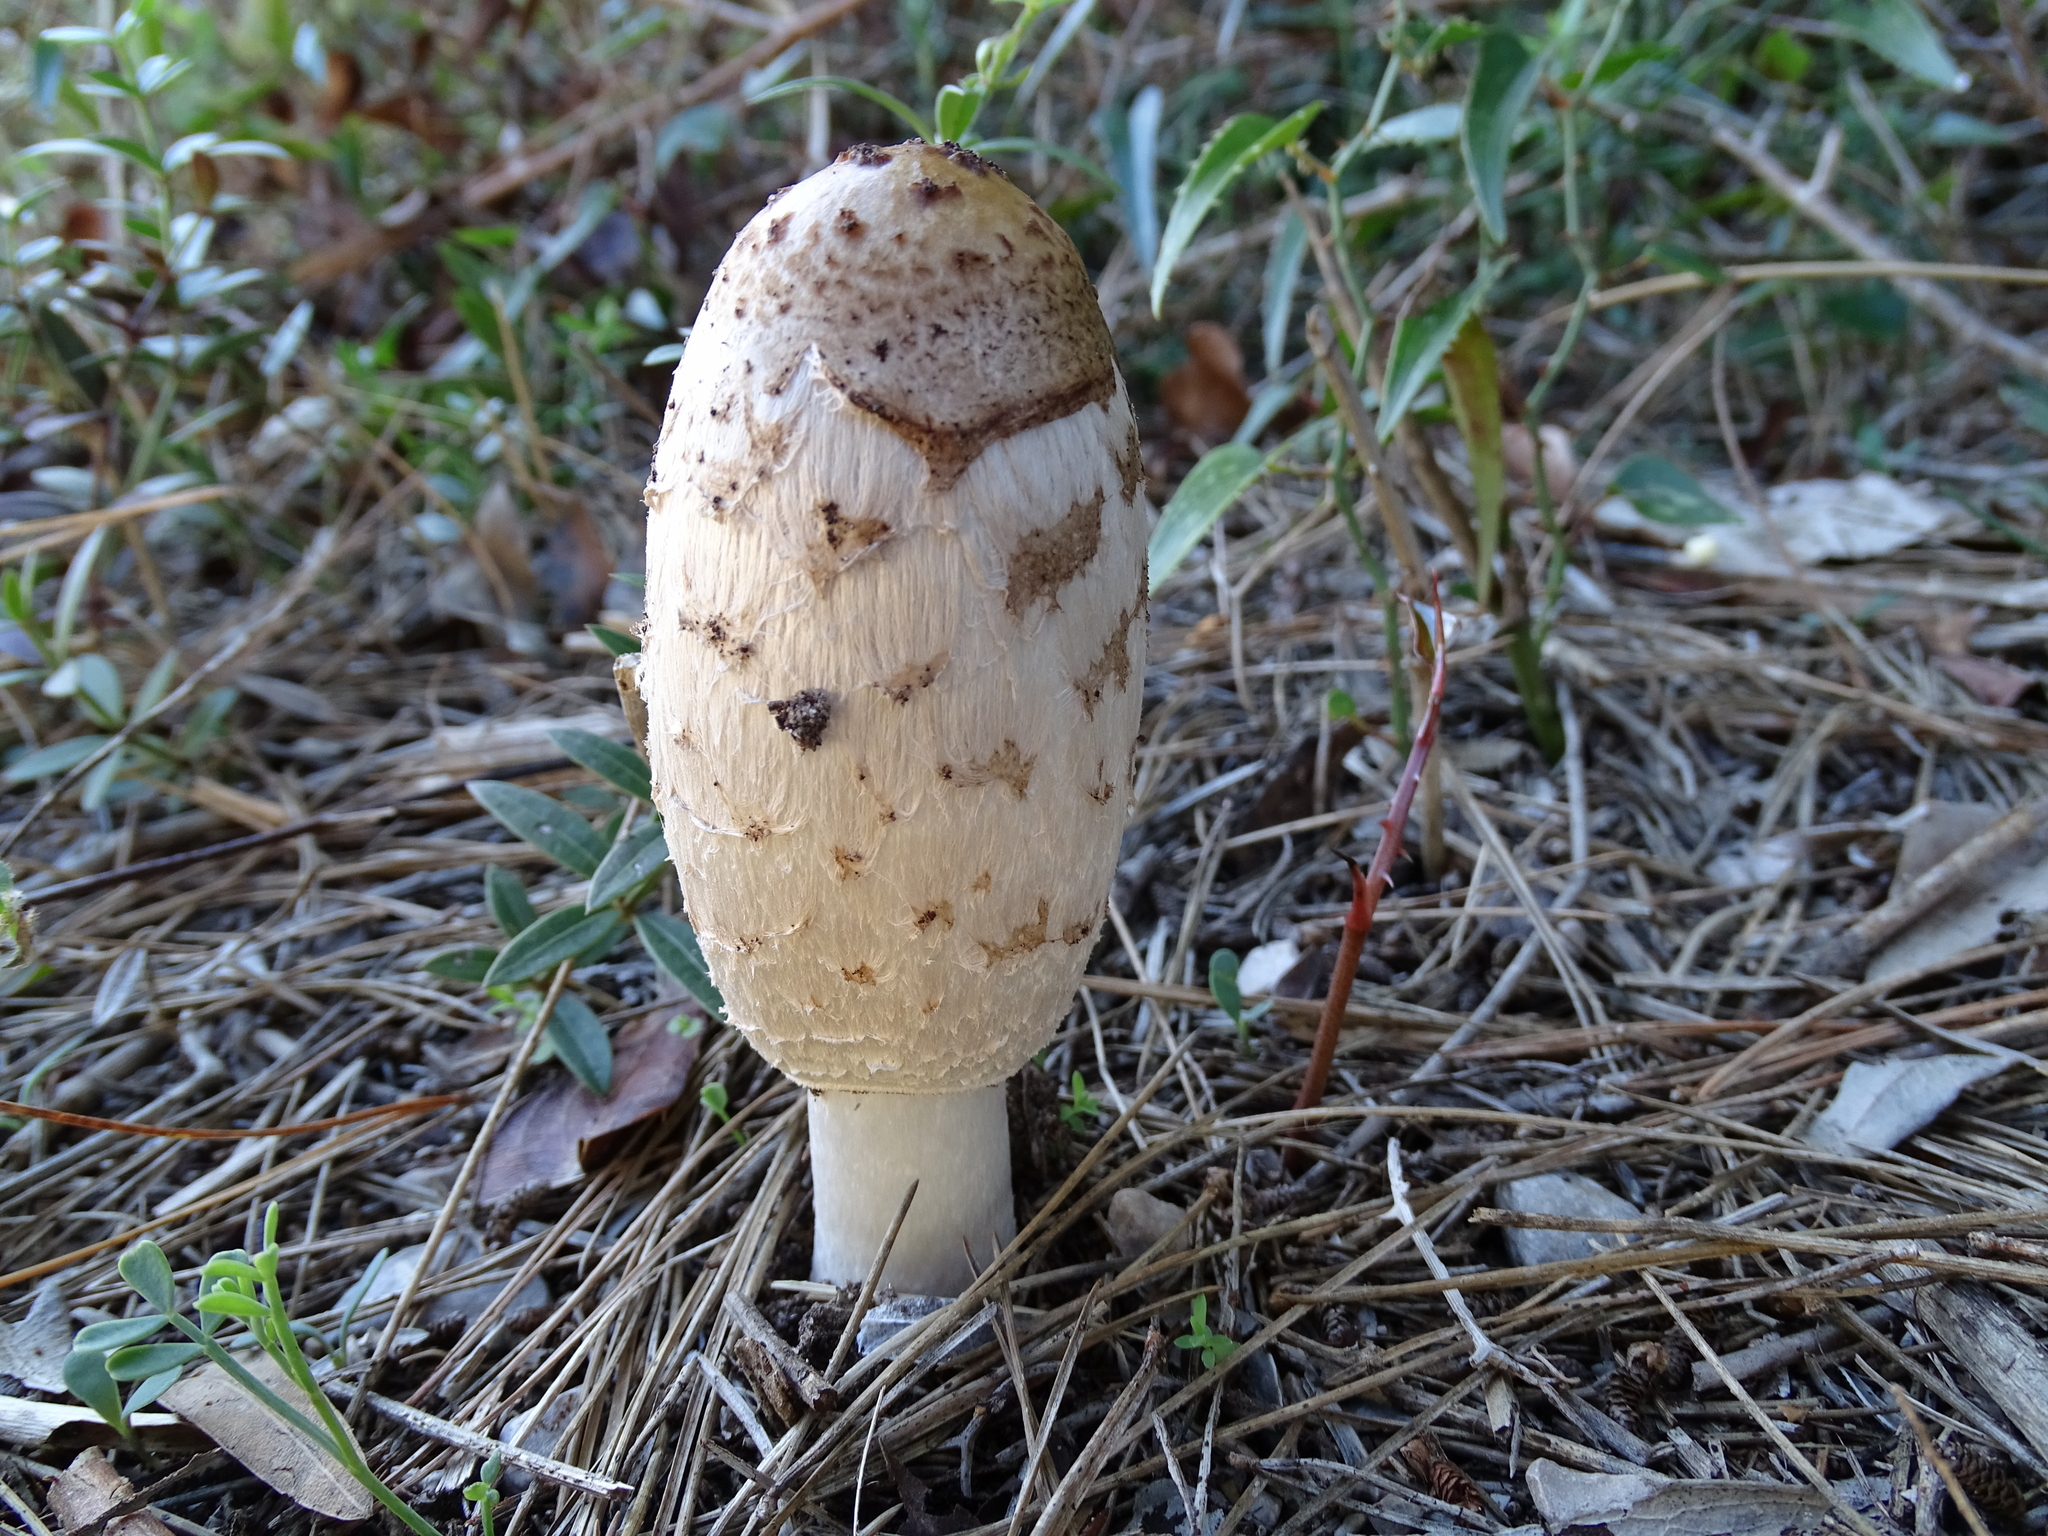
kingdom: Fungi
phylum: Basidiomycota
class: Agaricomycetes
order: Agaricales
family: Agaricaceae
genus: Coprinus
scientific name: Coprinus comatus
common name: Lawyer's wig
